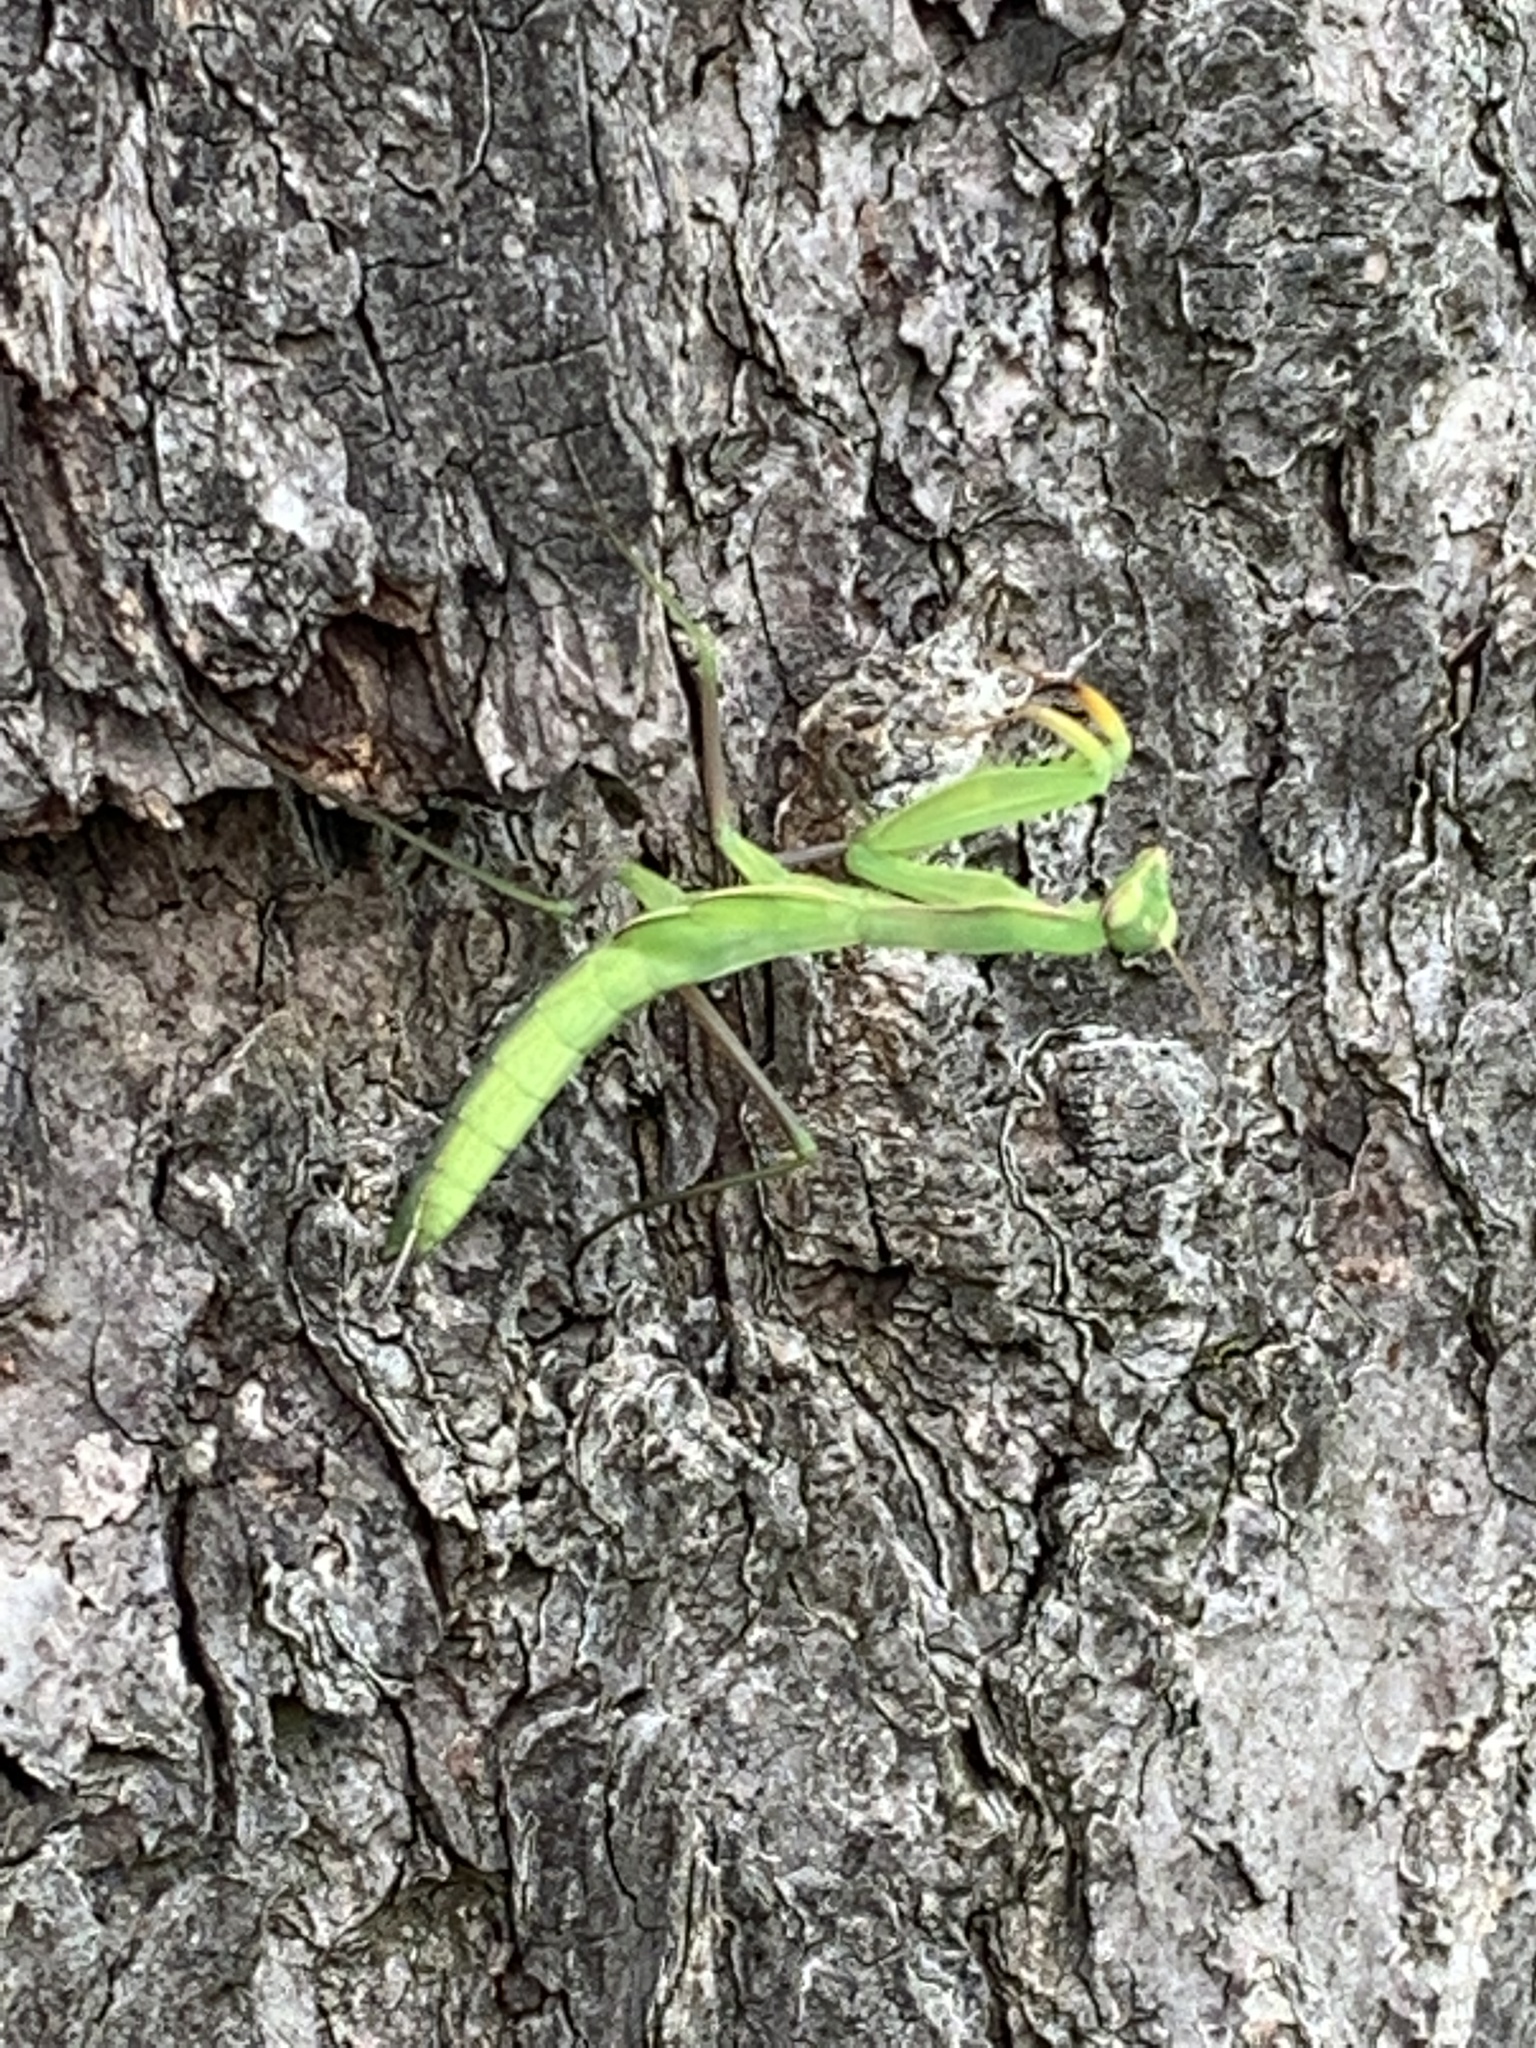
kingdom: Animalia
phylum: Arthropoda
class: Insecta
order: Mantodea
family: Mantidae
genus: Mantis
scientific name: Mantis religiosa
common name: Praying mantis
